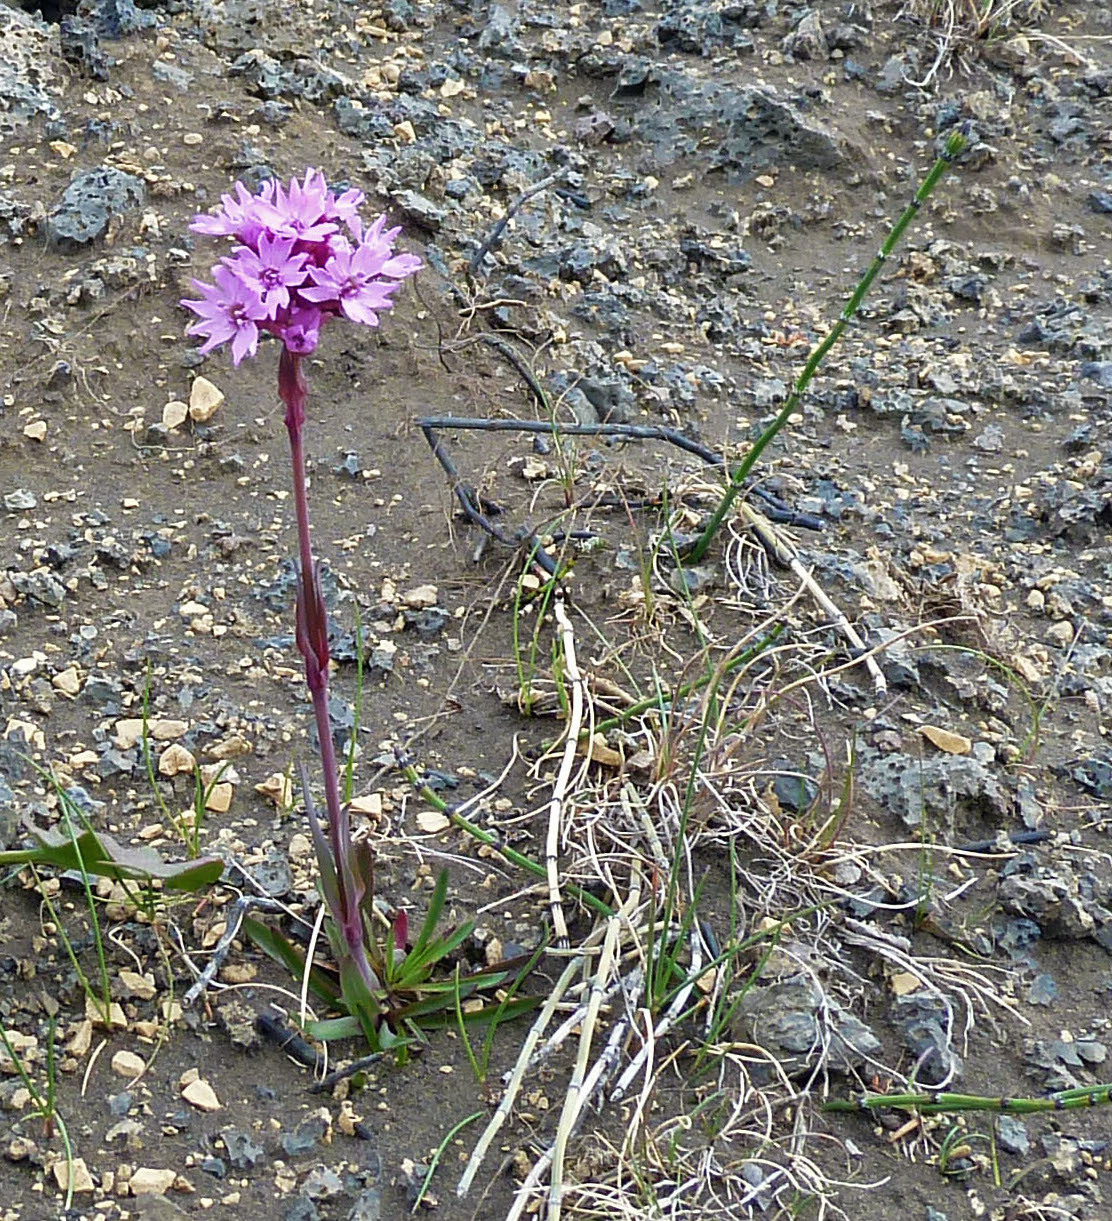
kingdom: Plantae
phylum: Tracheophyta
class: Magnoliopsida
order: Caryophyllales
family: Caryophyllaceae
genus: Viscaria
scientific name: Viscaria alpina
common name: Alpine campion
